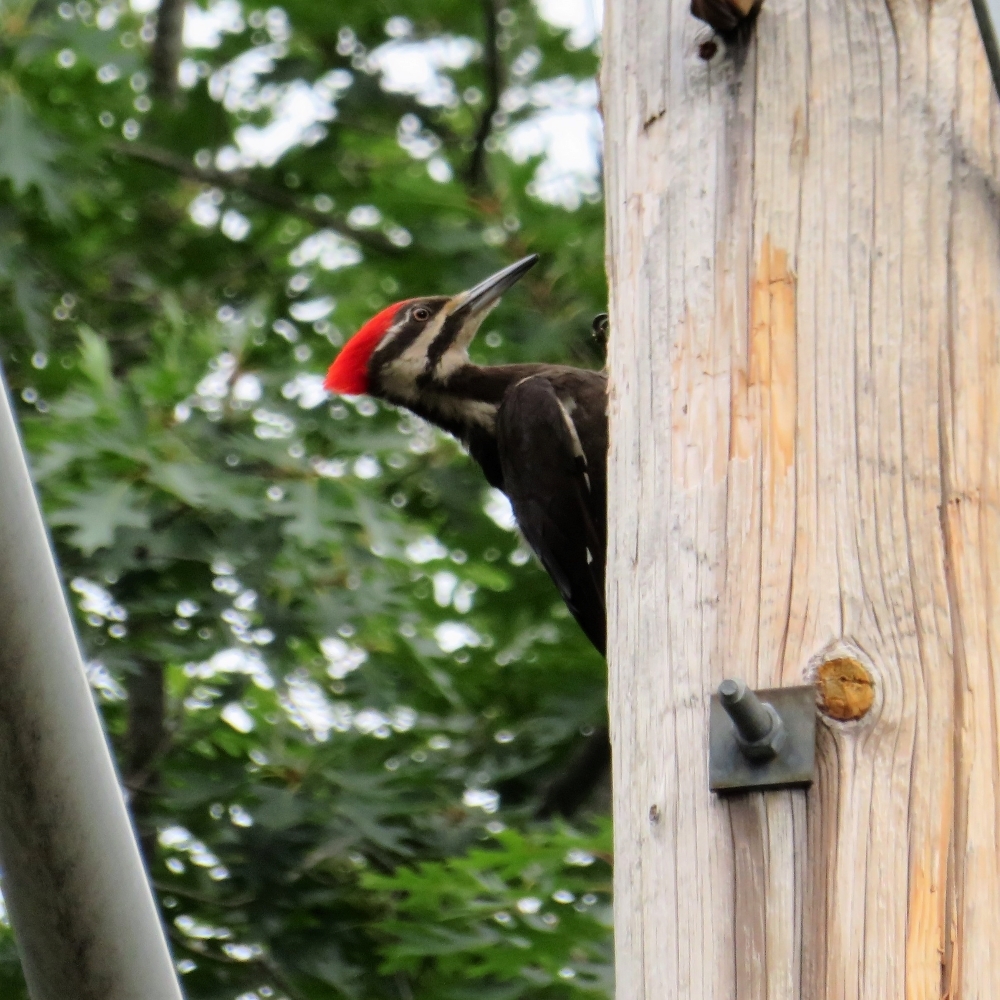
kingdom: Animalia
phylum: Chordata
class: Aves
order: Piciformes
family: Picidae
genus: Dryocopus
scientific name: Dryocopus pileatus
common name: Pileated woodpecker
